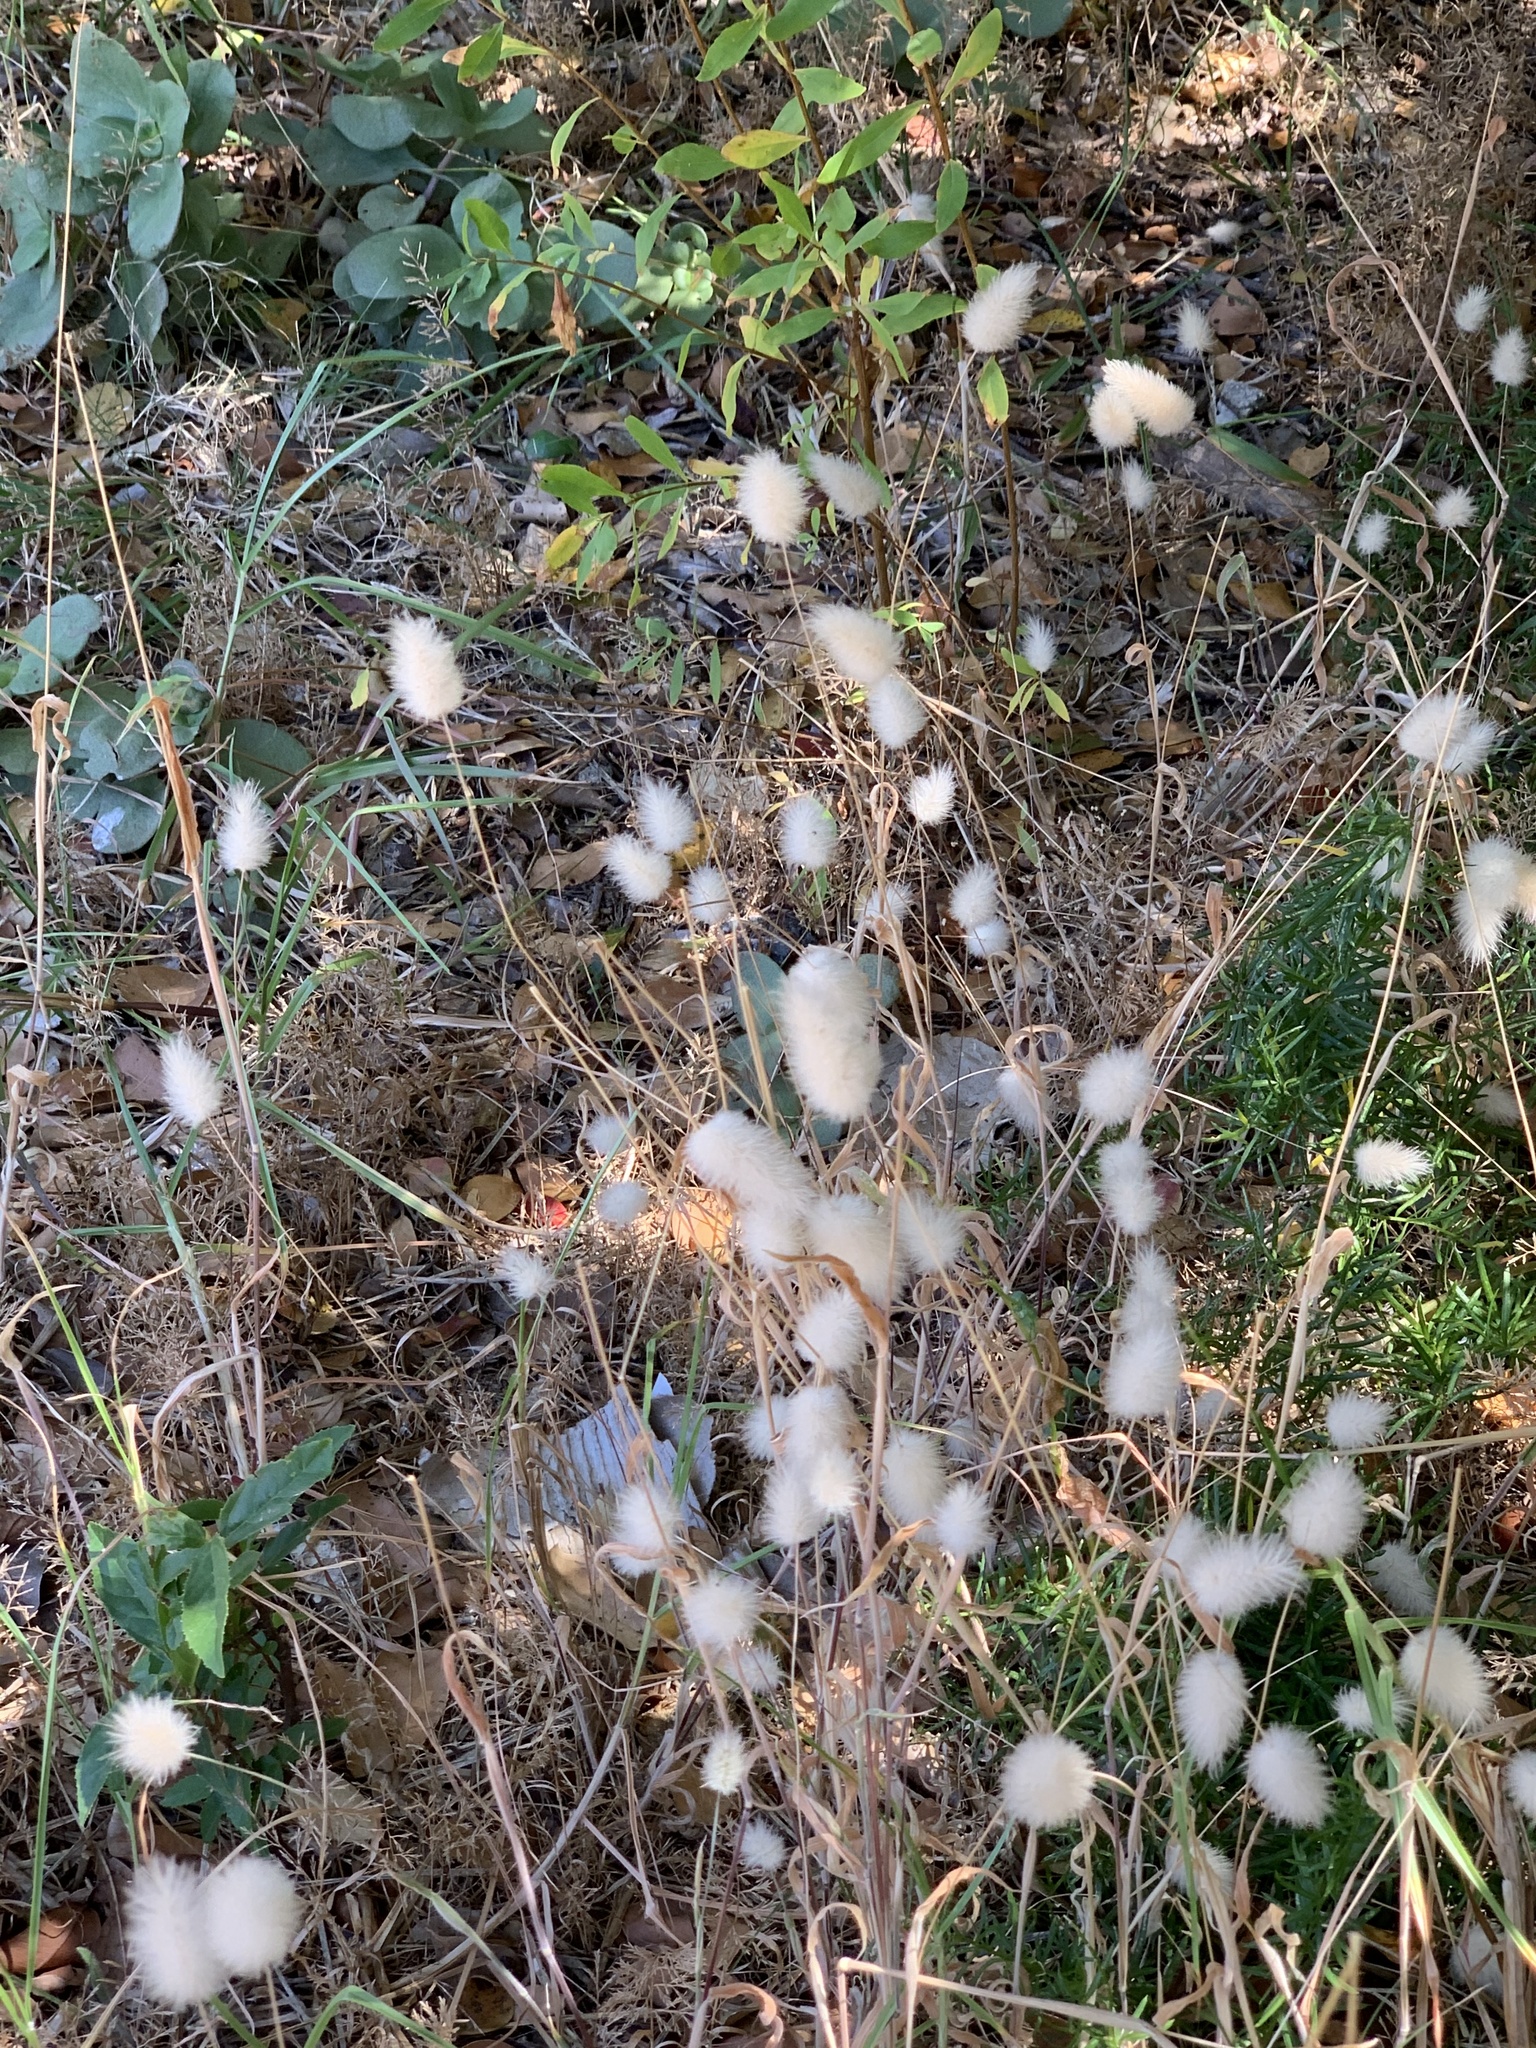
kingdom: Plantae
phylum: Tracheophyta
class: Liliopsida
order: Poales
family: Poaceae
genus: Lagurus
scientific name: Lagurus ovatus
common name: Hare's-tail
